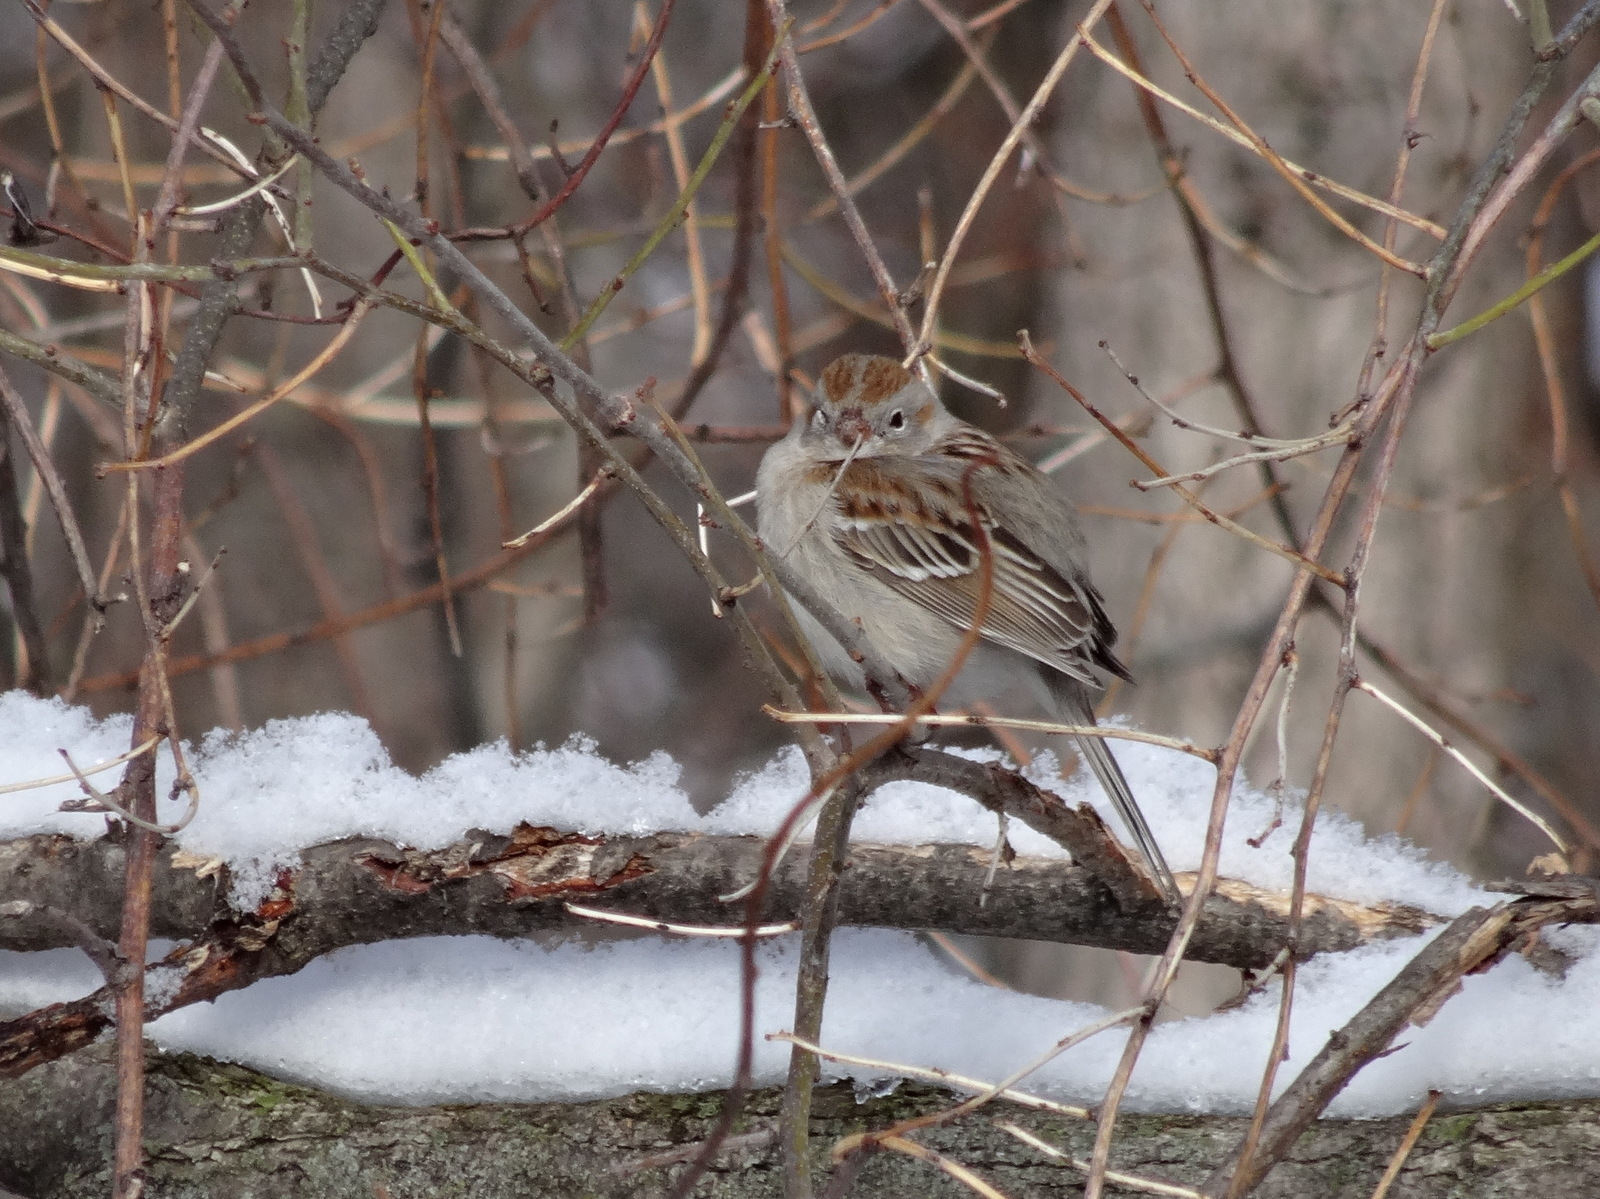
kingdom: Animalia
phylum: Chordata
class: Aves
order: Passeriformes
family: Passerellidae
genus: Spizella
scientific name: Spizella pusilla
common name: Field sparrow
